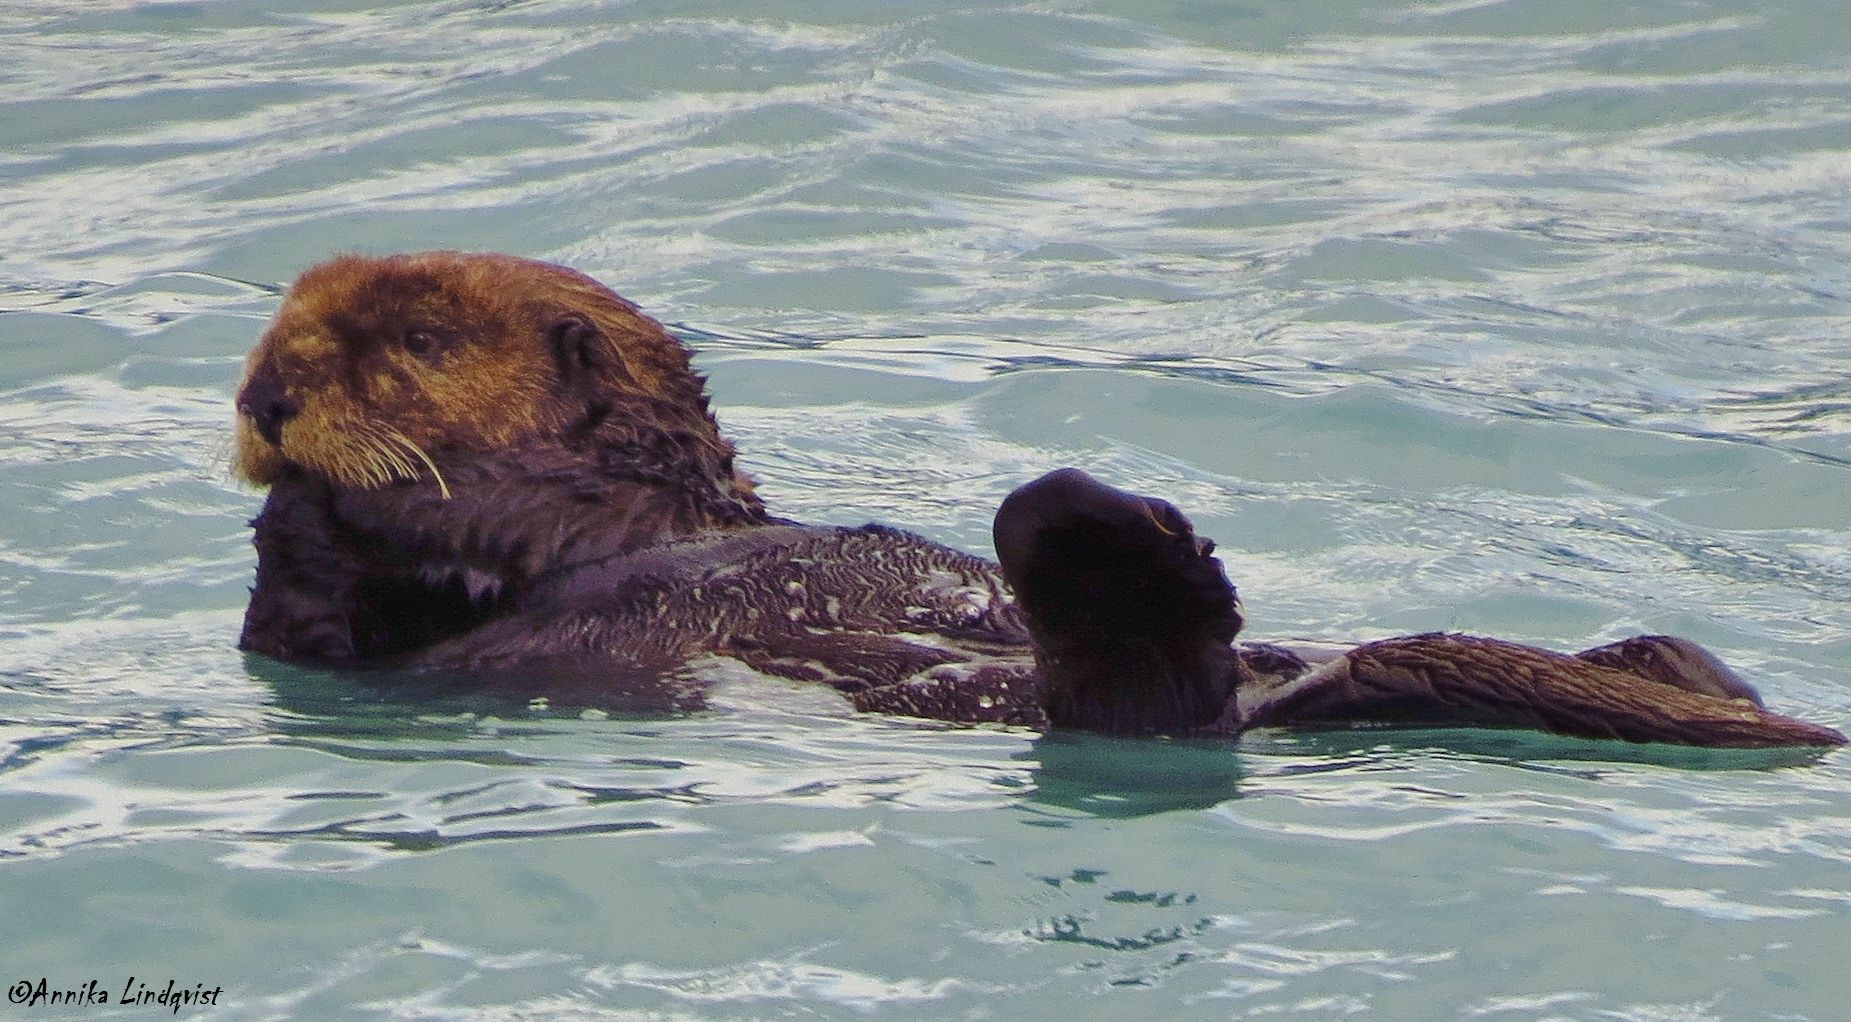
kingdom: Animalia
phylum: Chordata
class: Mammalia
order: Carnivora
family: Mustelidae
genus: Enhydra
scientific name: Enhydra lutris
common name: Sea otter
